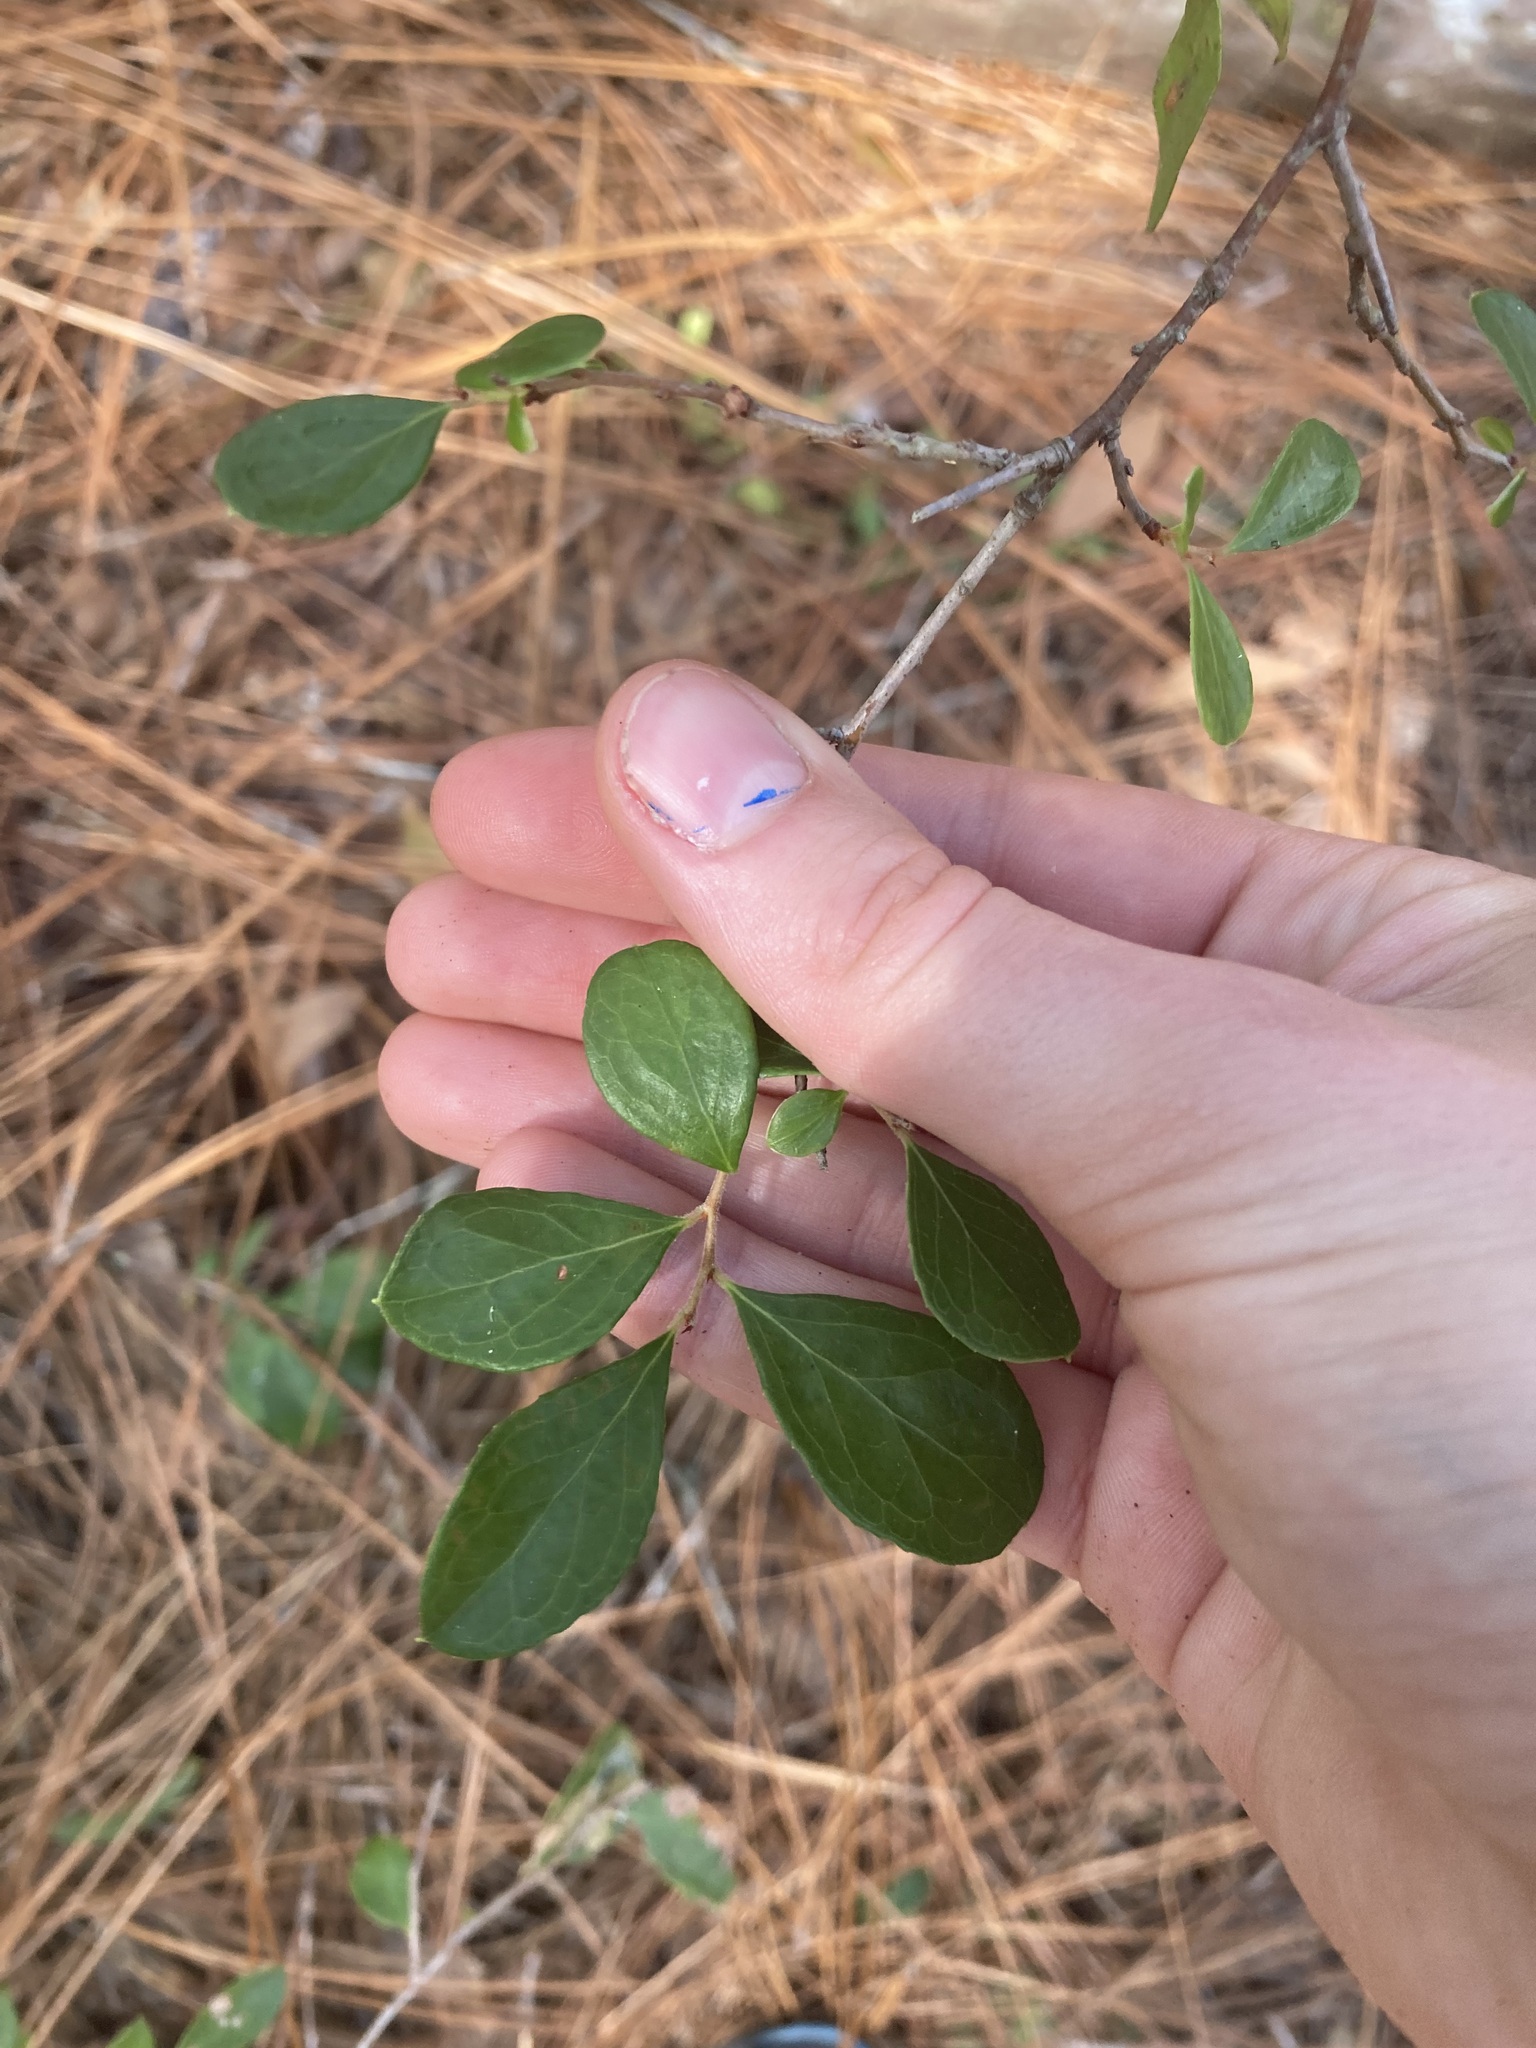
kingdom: Plantae
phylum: Tracheophyta
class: Magnoliopsida
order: Ericales
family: Ericaceae
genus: Vaccinium
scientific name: Vaccinium arboreum
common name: Farkleberry
